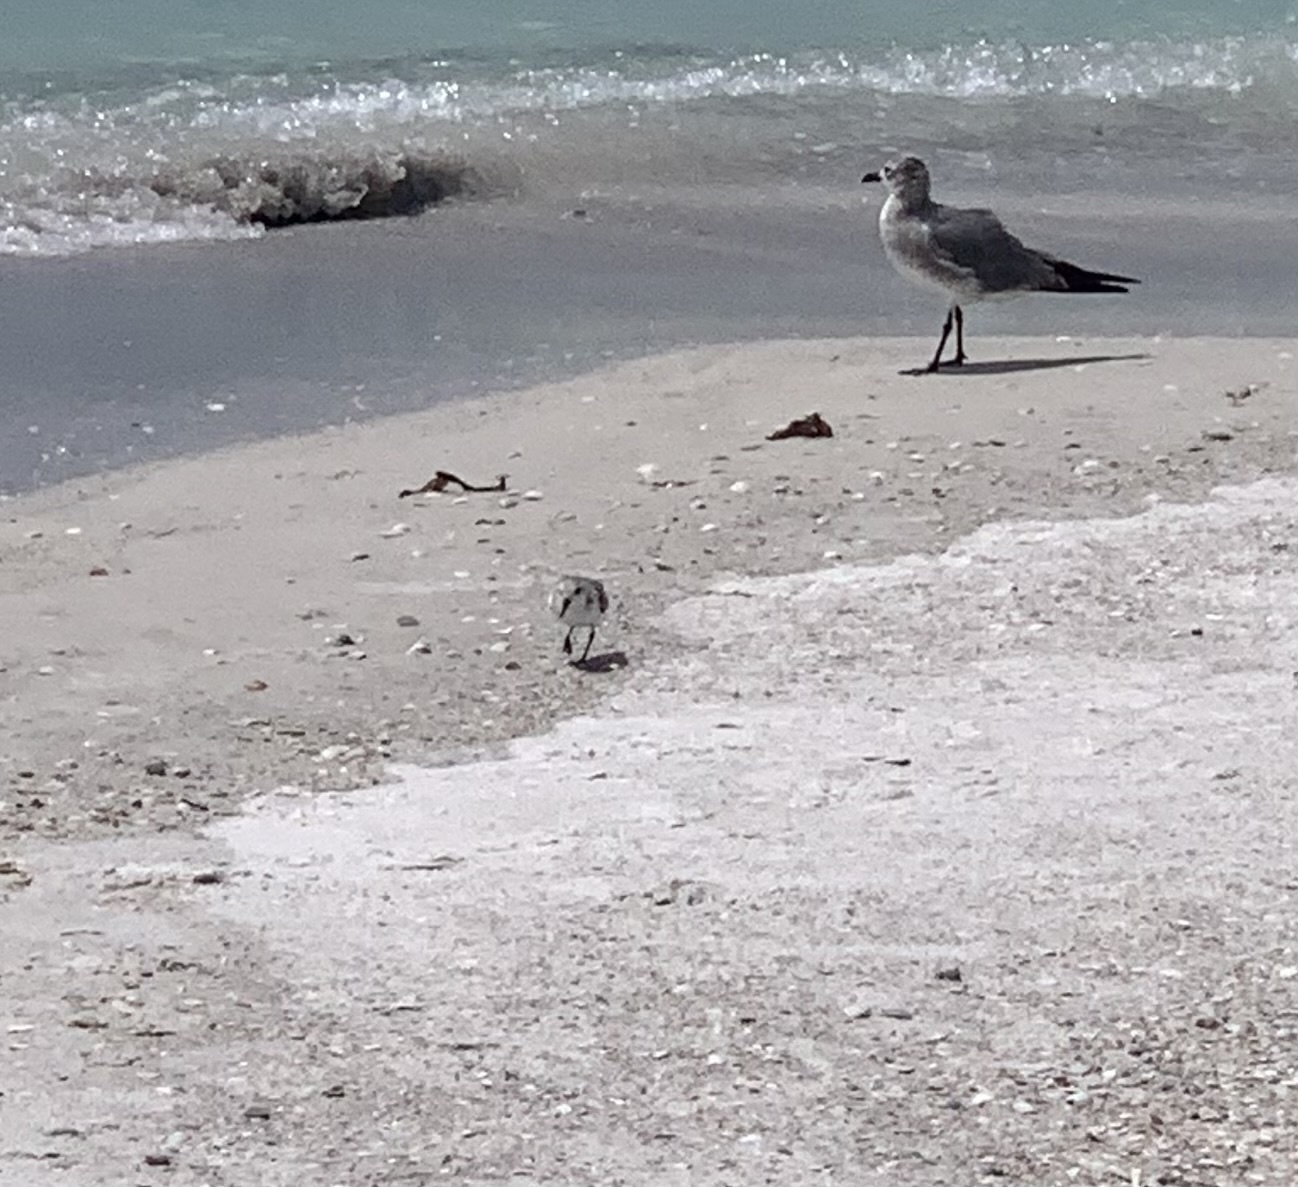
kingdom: Animalia
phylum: Chordata
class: Aves
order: Charadriiformes
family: Scolopacidae
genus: Calidris
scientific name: Calidris alba
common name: Sanderling
